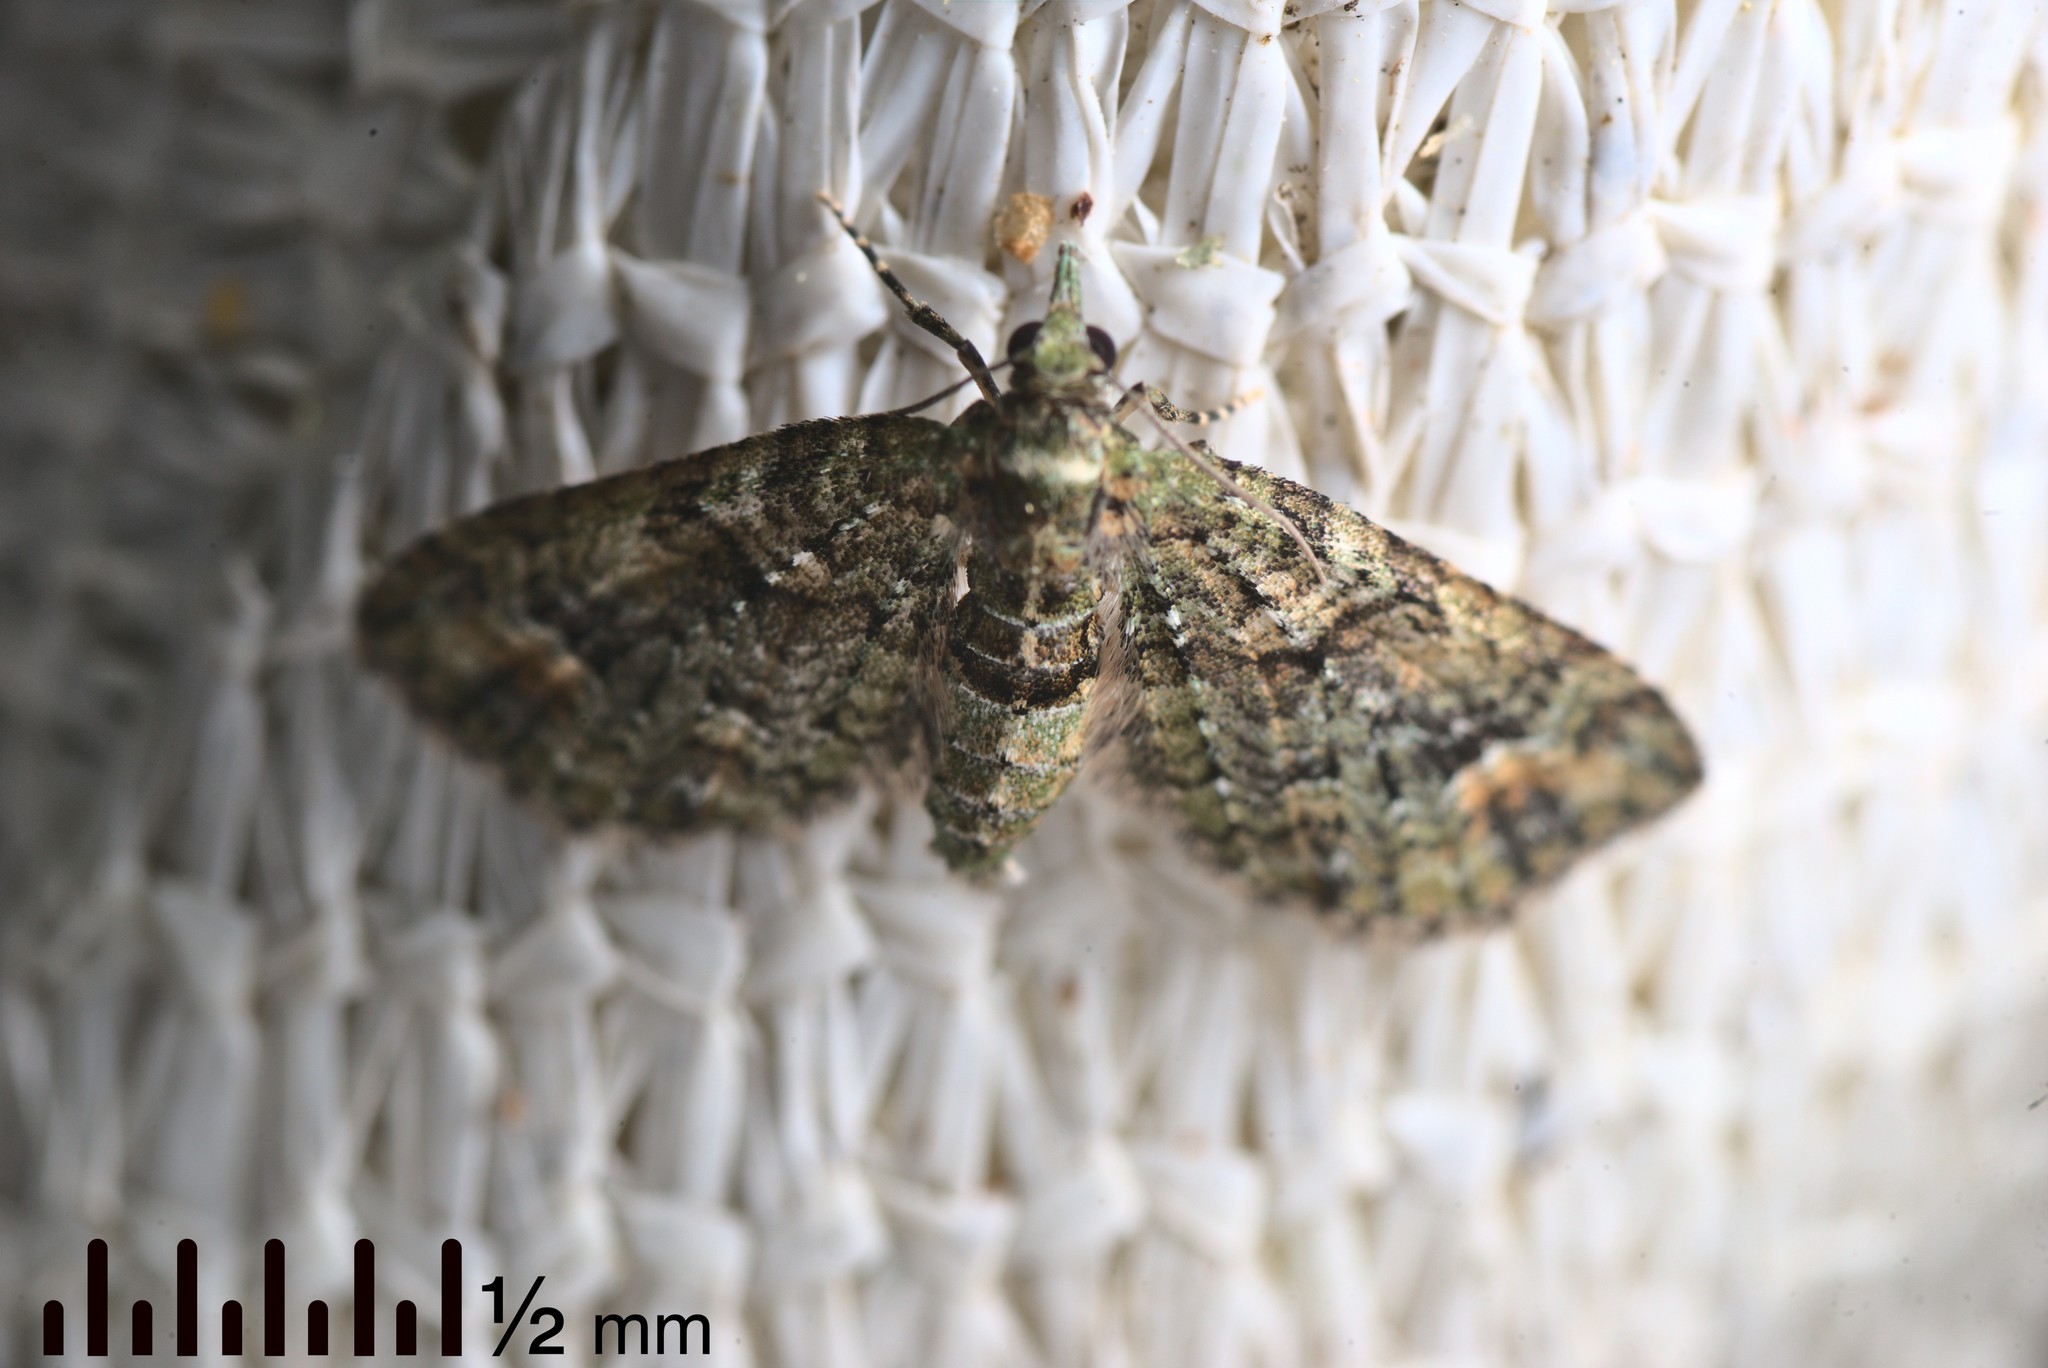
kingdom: Animalia
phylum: Arthropoda
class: Insecta
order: Lepidoptera
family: Geometridae
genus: Idaea
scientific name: Idaea mutanda
